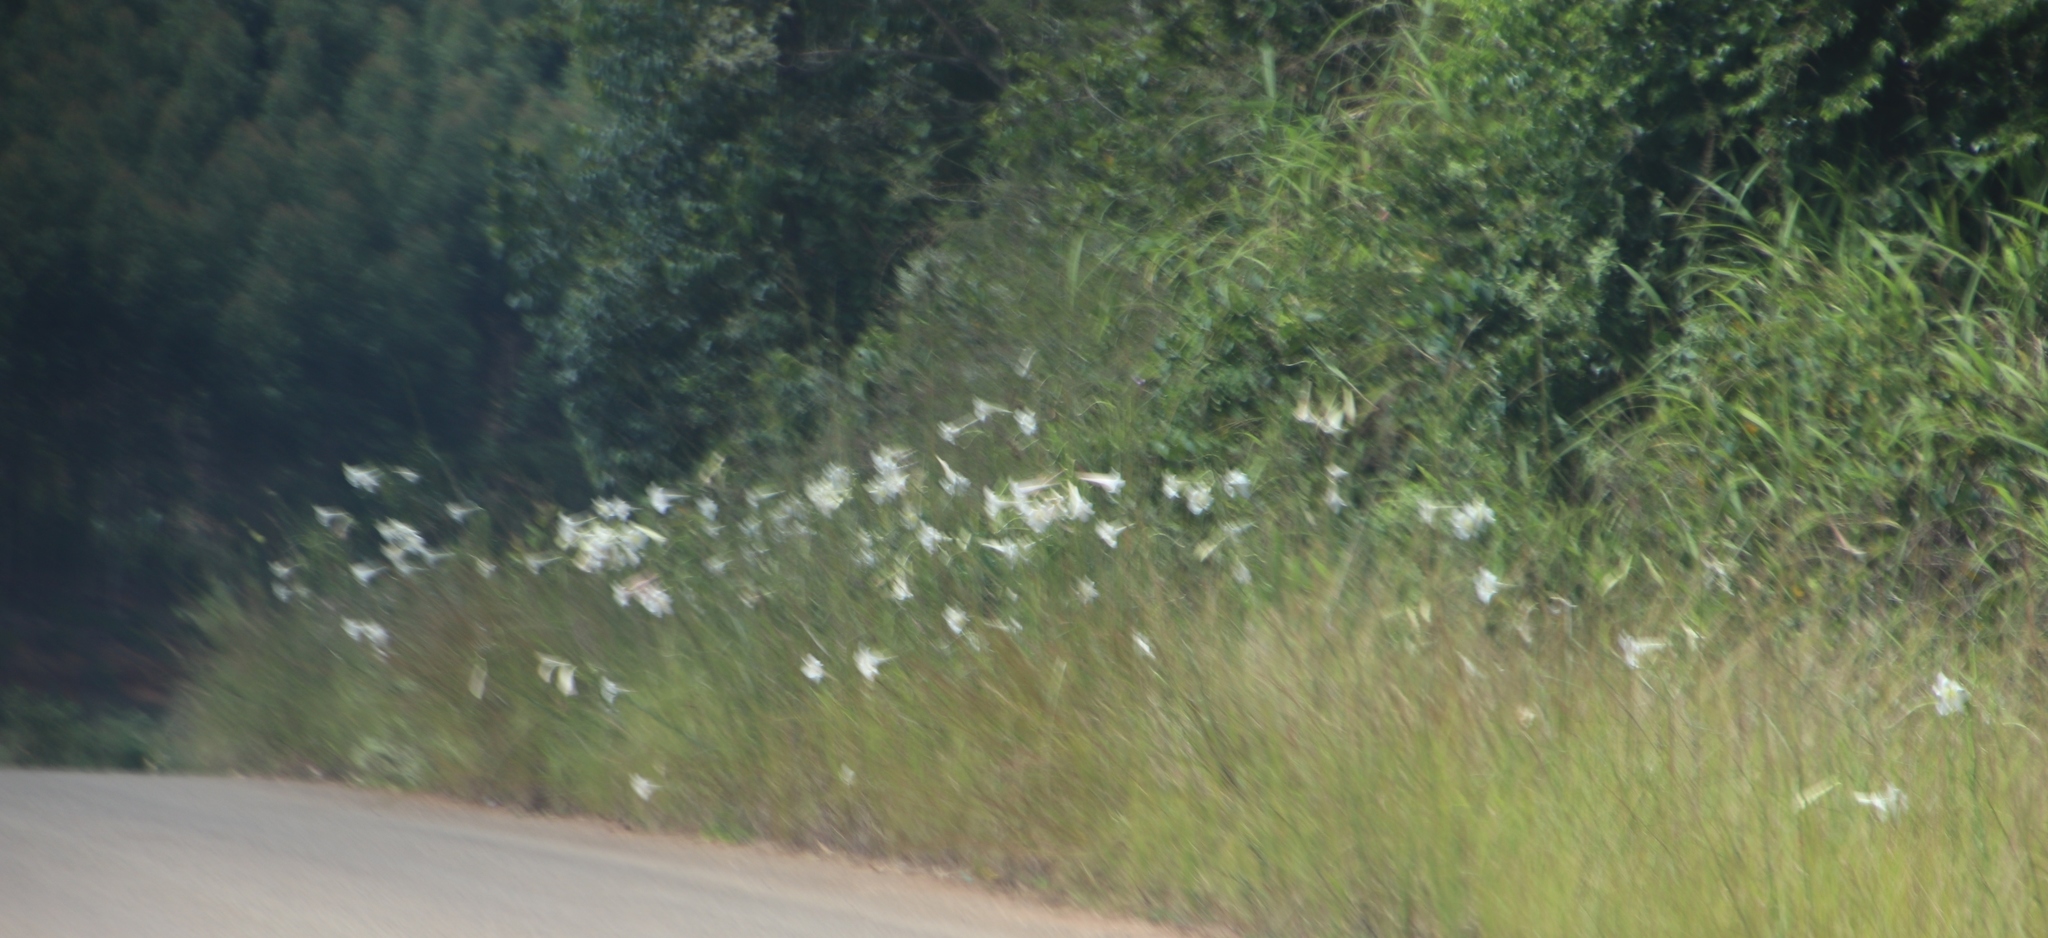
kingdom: Plantae
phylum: Tracheophyta
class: Liliopsida
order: Liliales
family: Liliaceae
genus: Lilium
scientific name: Lilium formosanum
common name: Formosa lily
